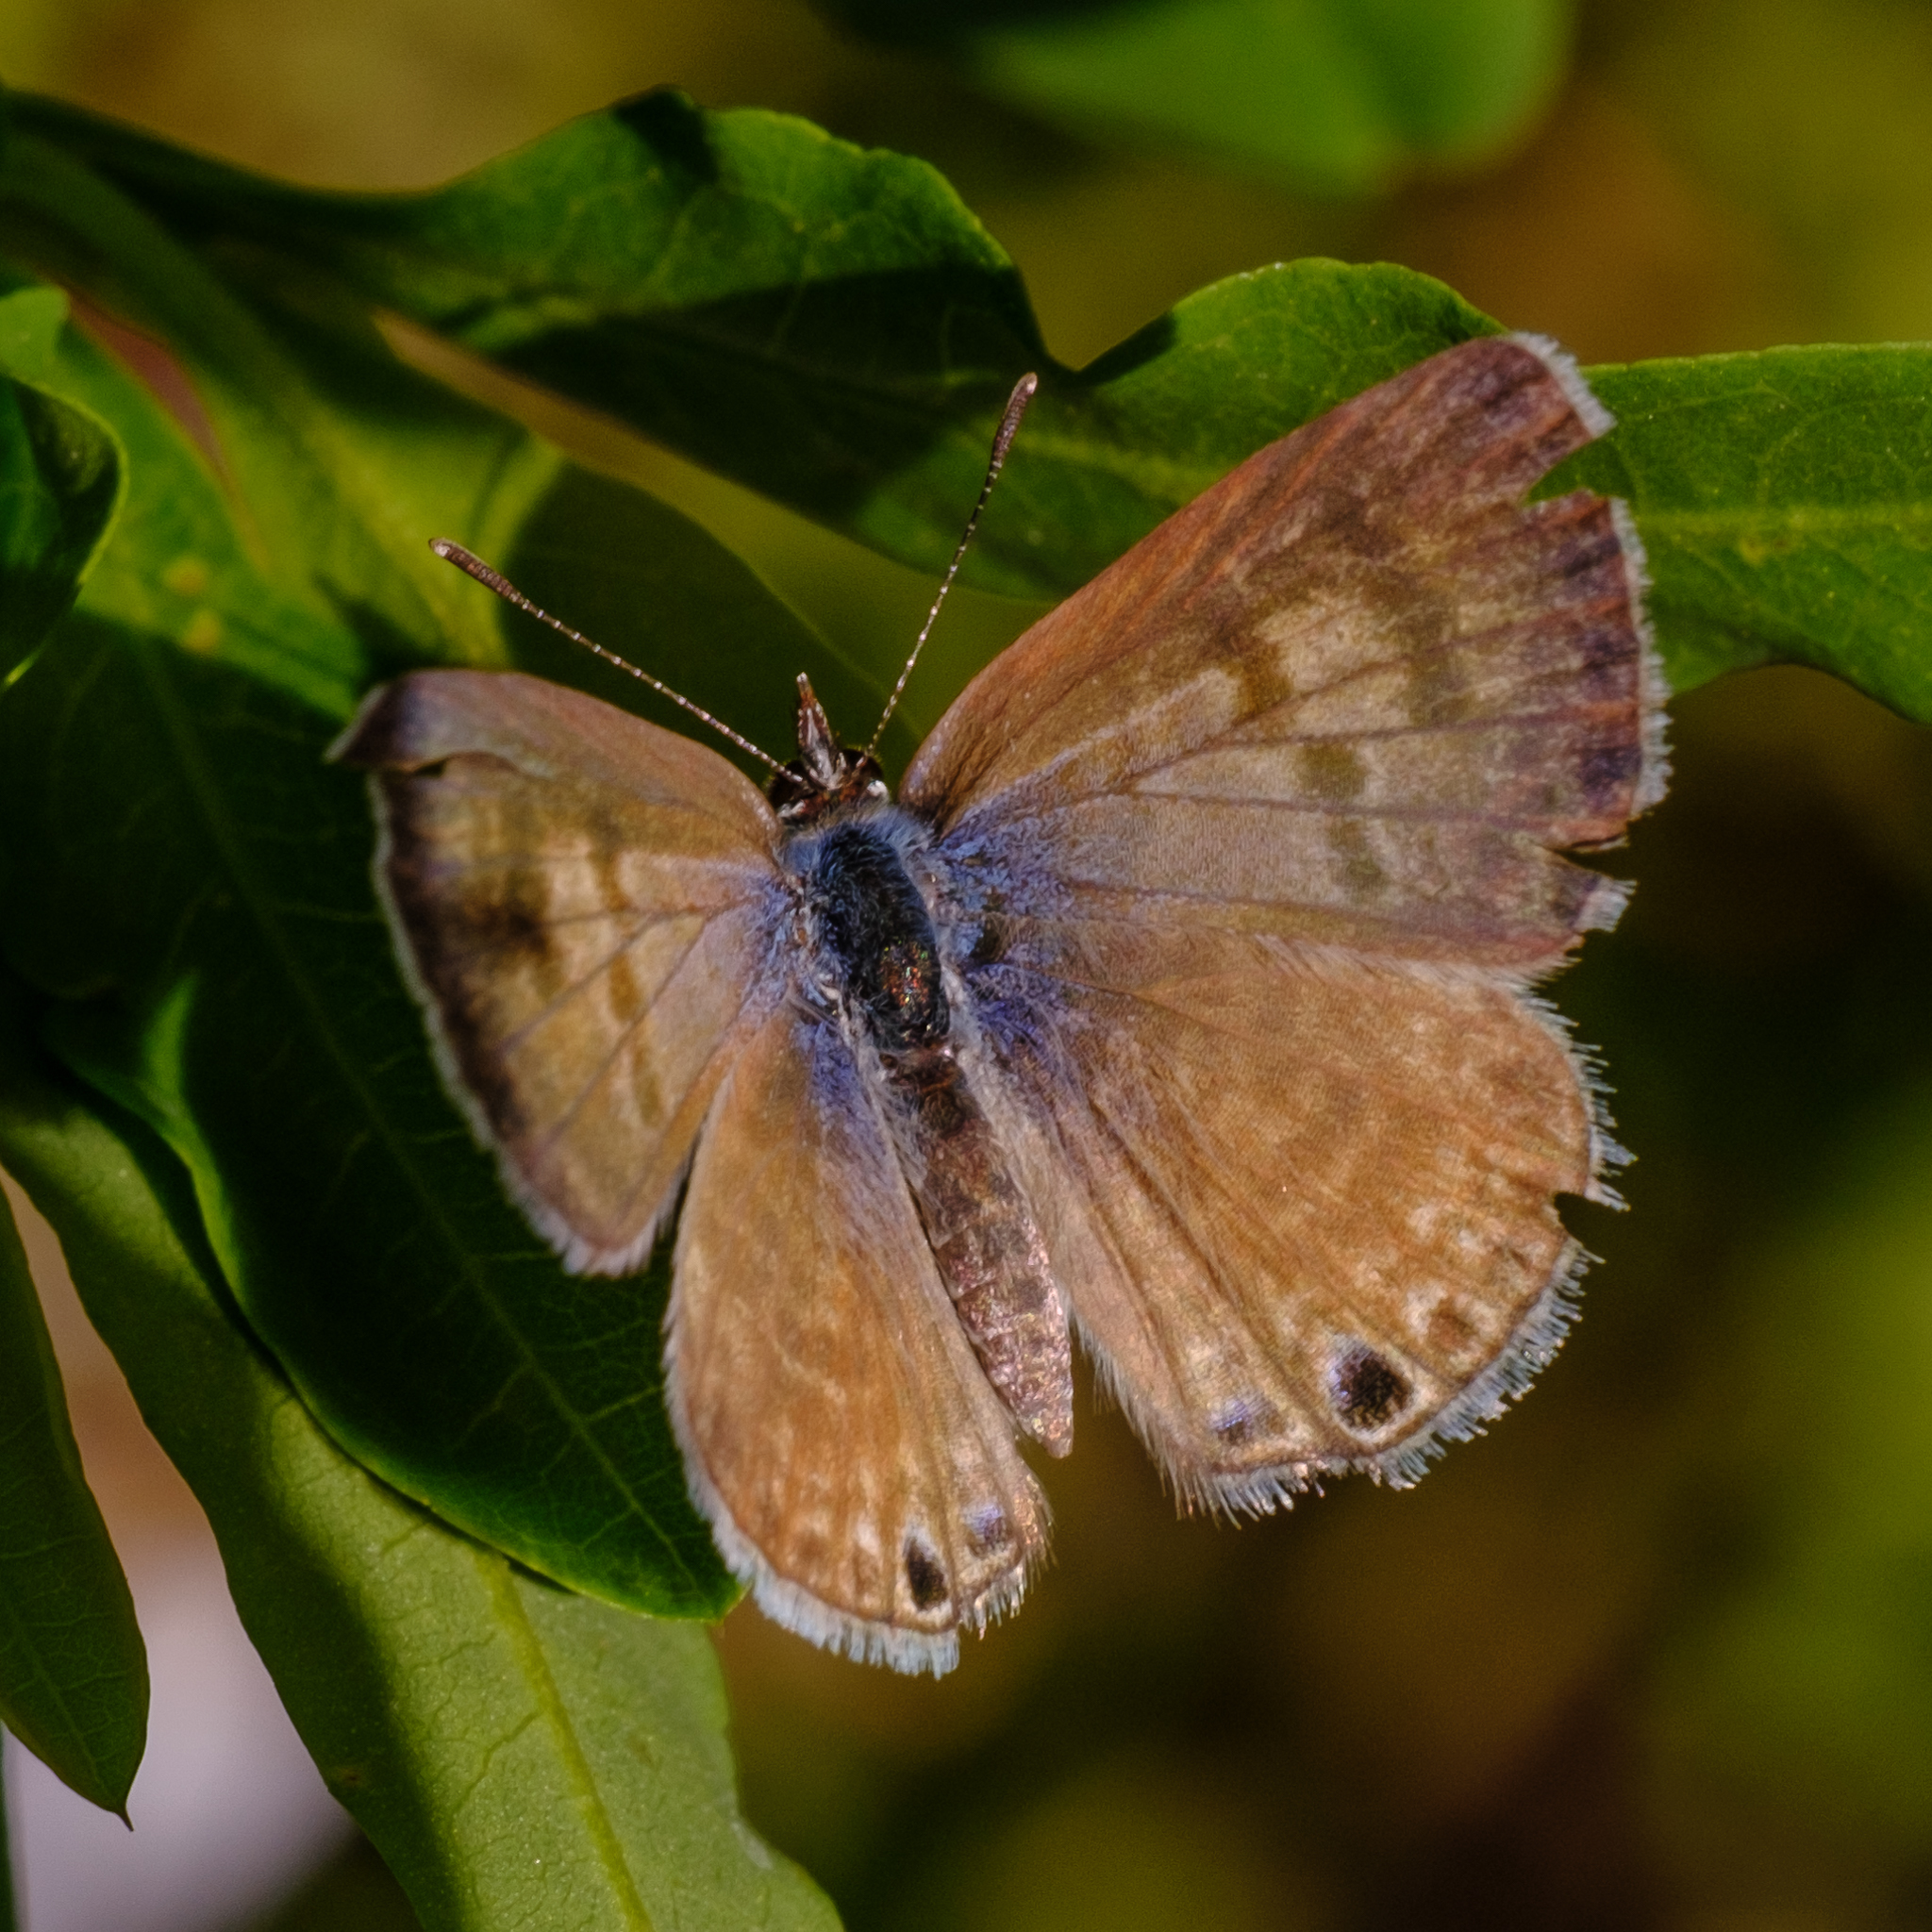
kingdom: Animalia
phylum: Arthropoda
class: Insecta
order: Lepidoptera
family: Lycaenidae
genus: Leptotes
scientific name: Leptotes marina
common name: Marine blue
